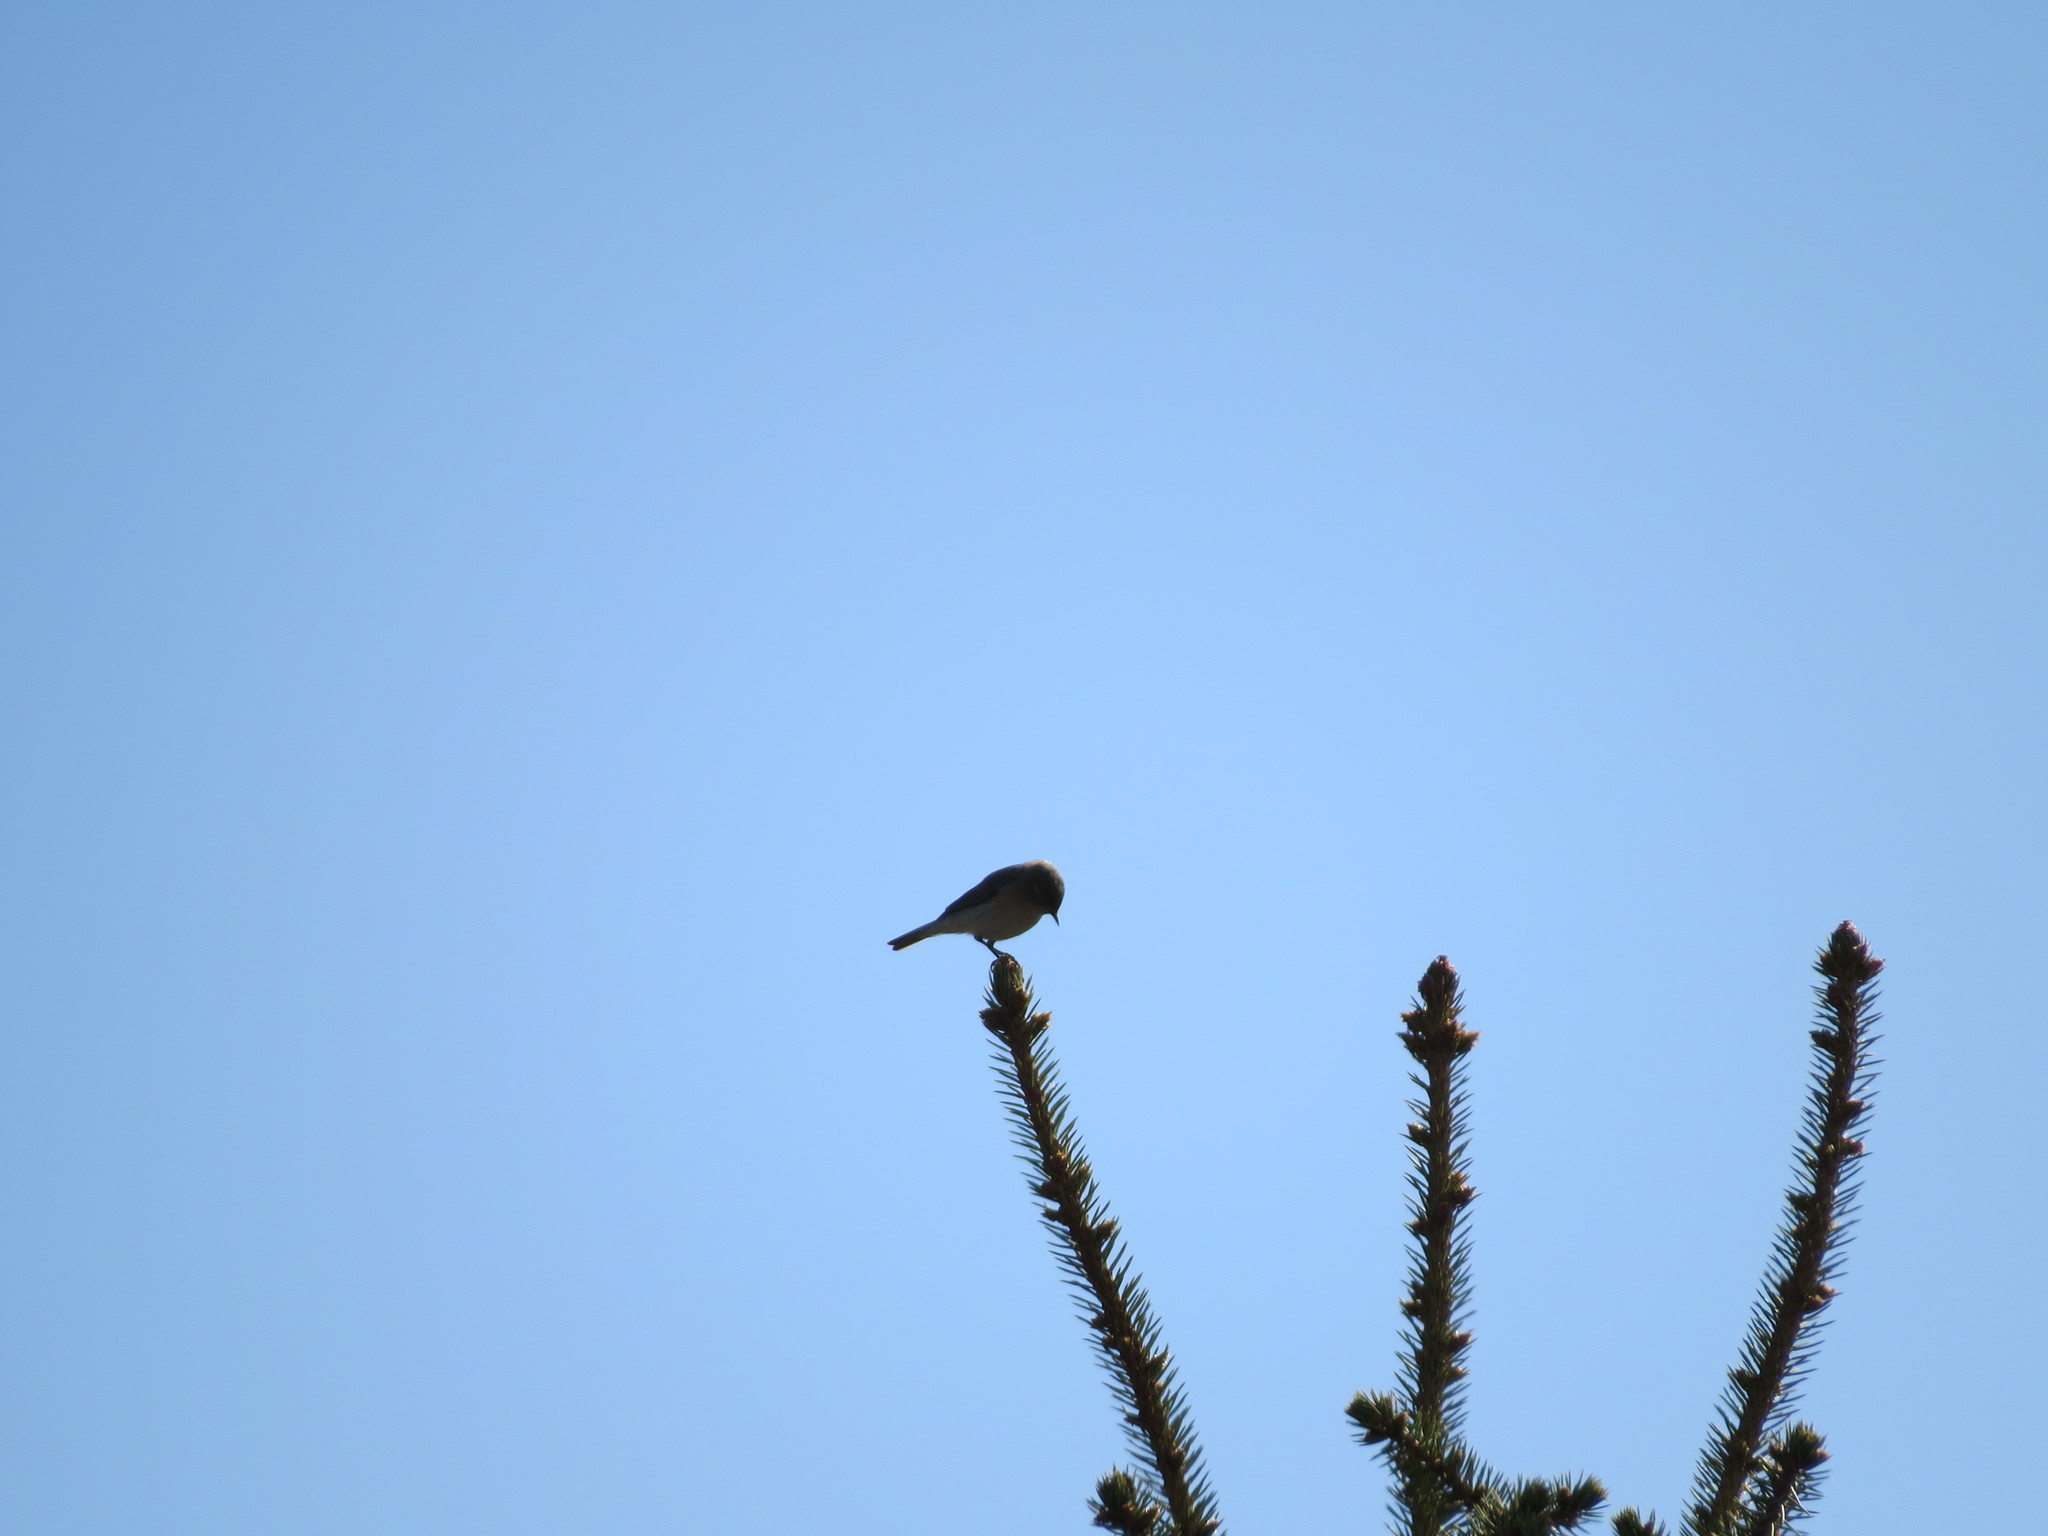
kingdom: Animalia
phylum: Chordata
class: Aves
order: Passeriformes
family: Phylloscopidae
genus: Phylloscopus
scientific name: Phylloscopus collybita
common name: Common chiffchaff
